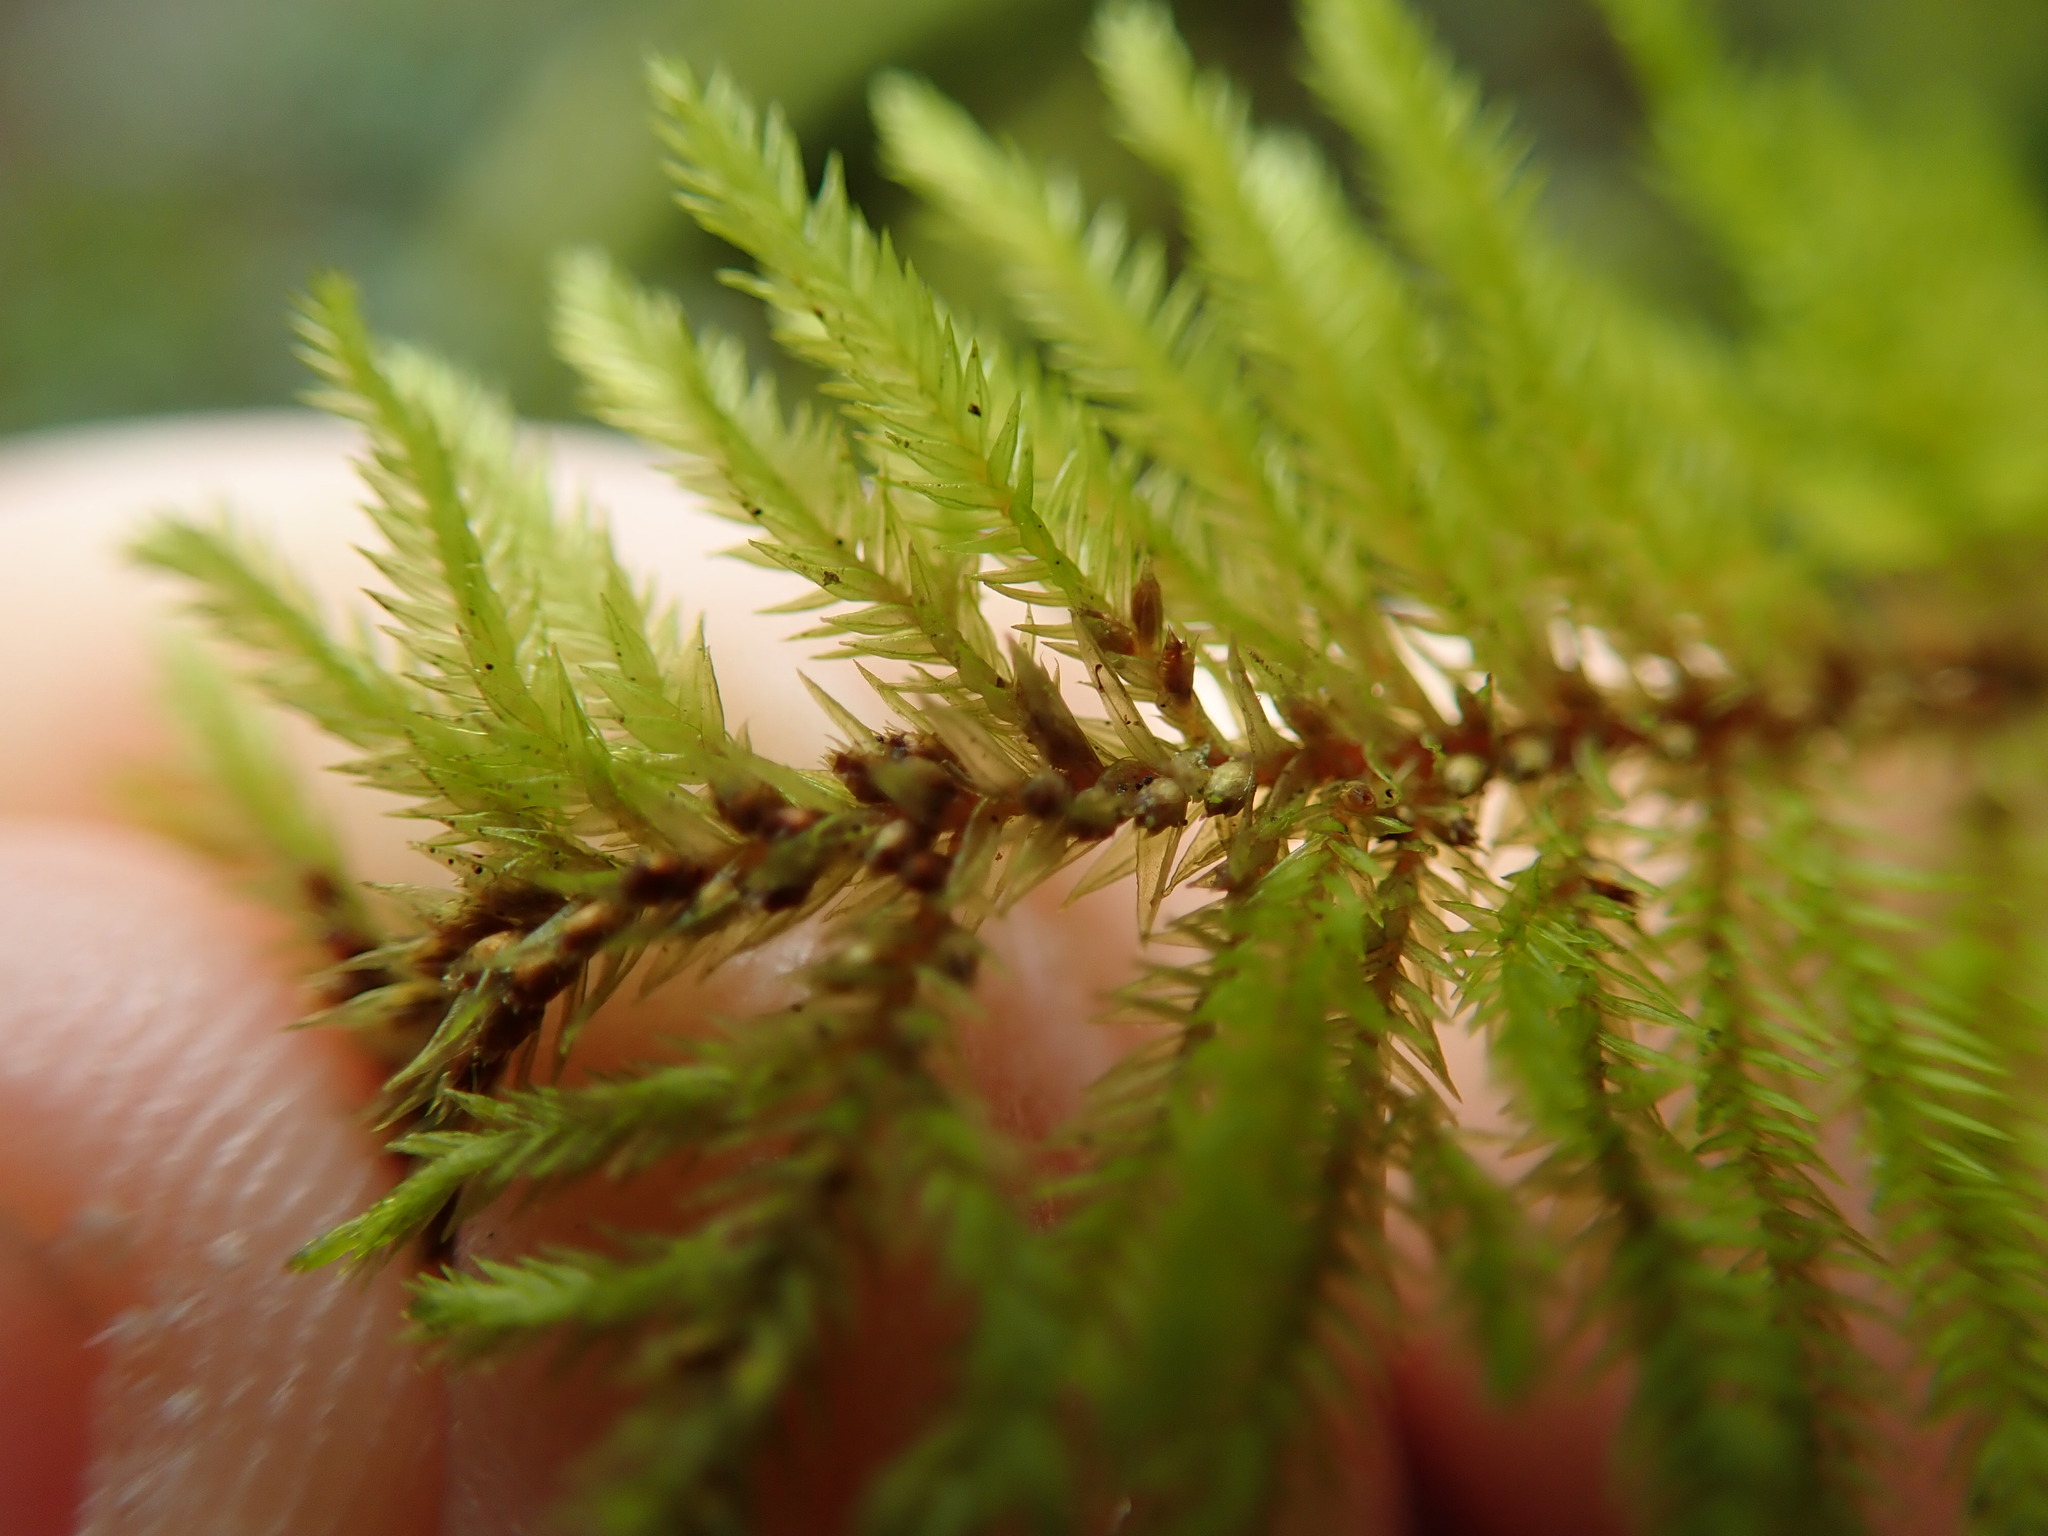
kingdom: Plantae
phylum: Bryophyta
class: Bryopsida
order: Hypnales
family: Cryphaeaceae
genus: Dendroalsia
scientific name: Dendroalsia abietina
